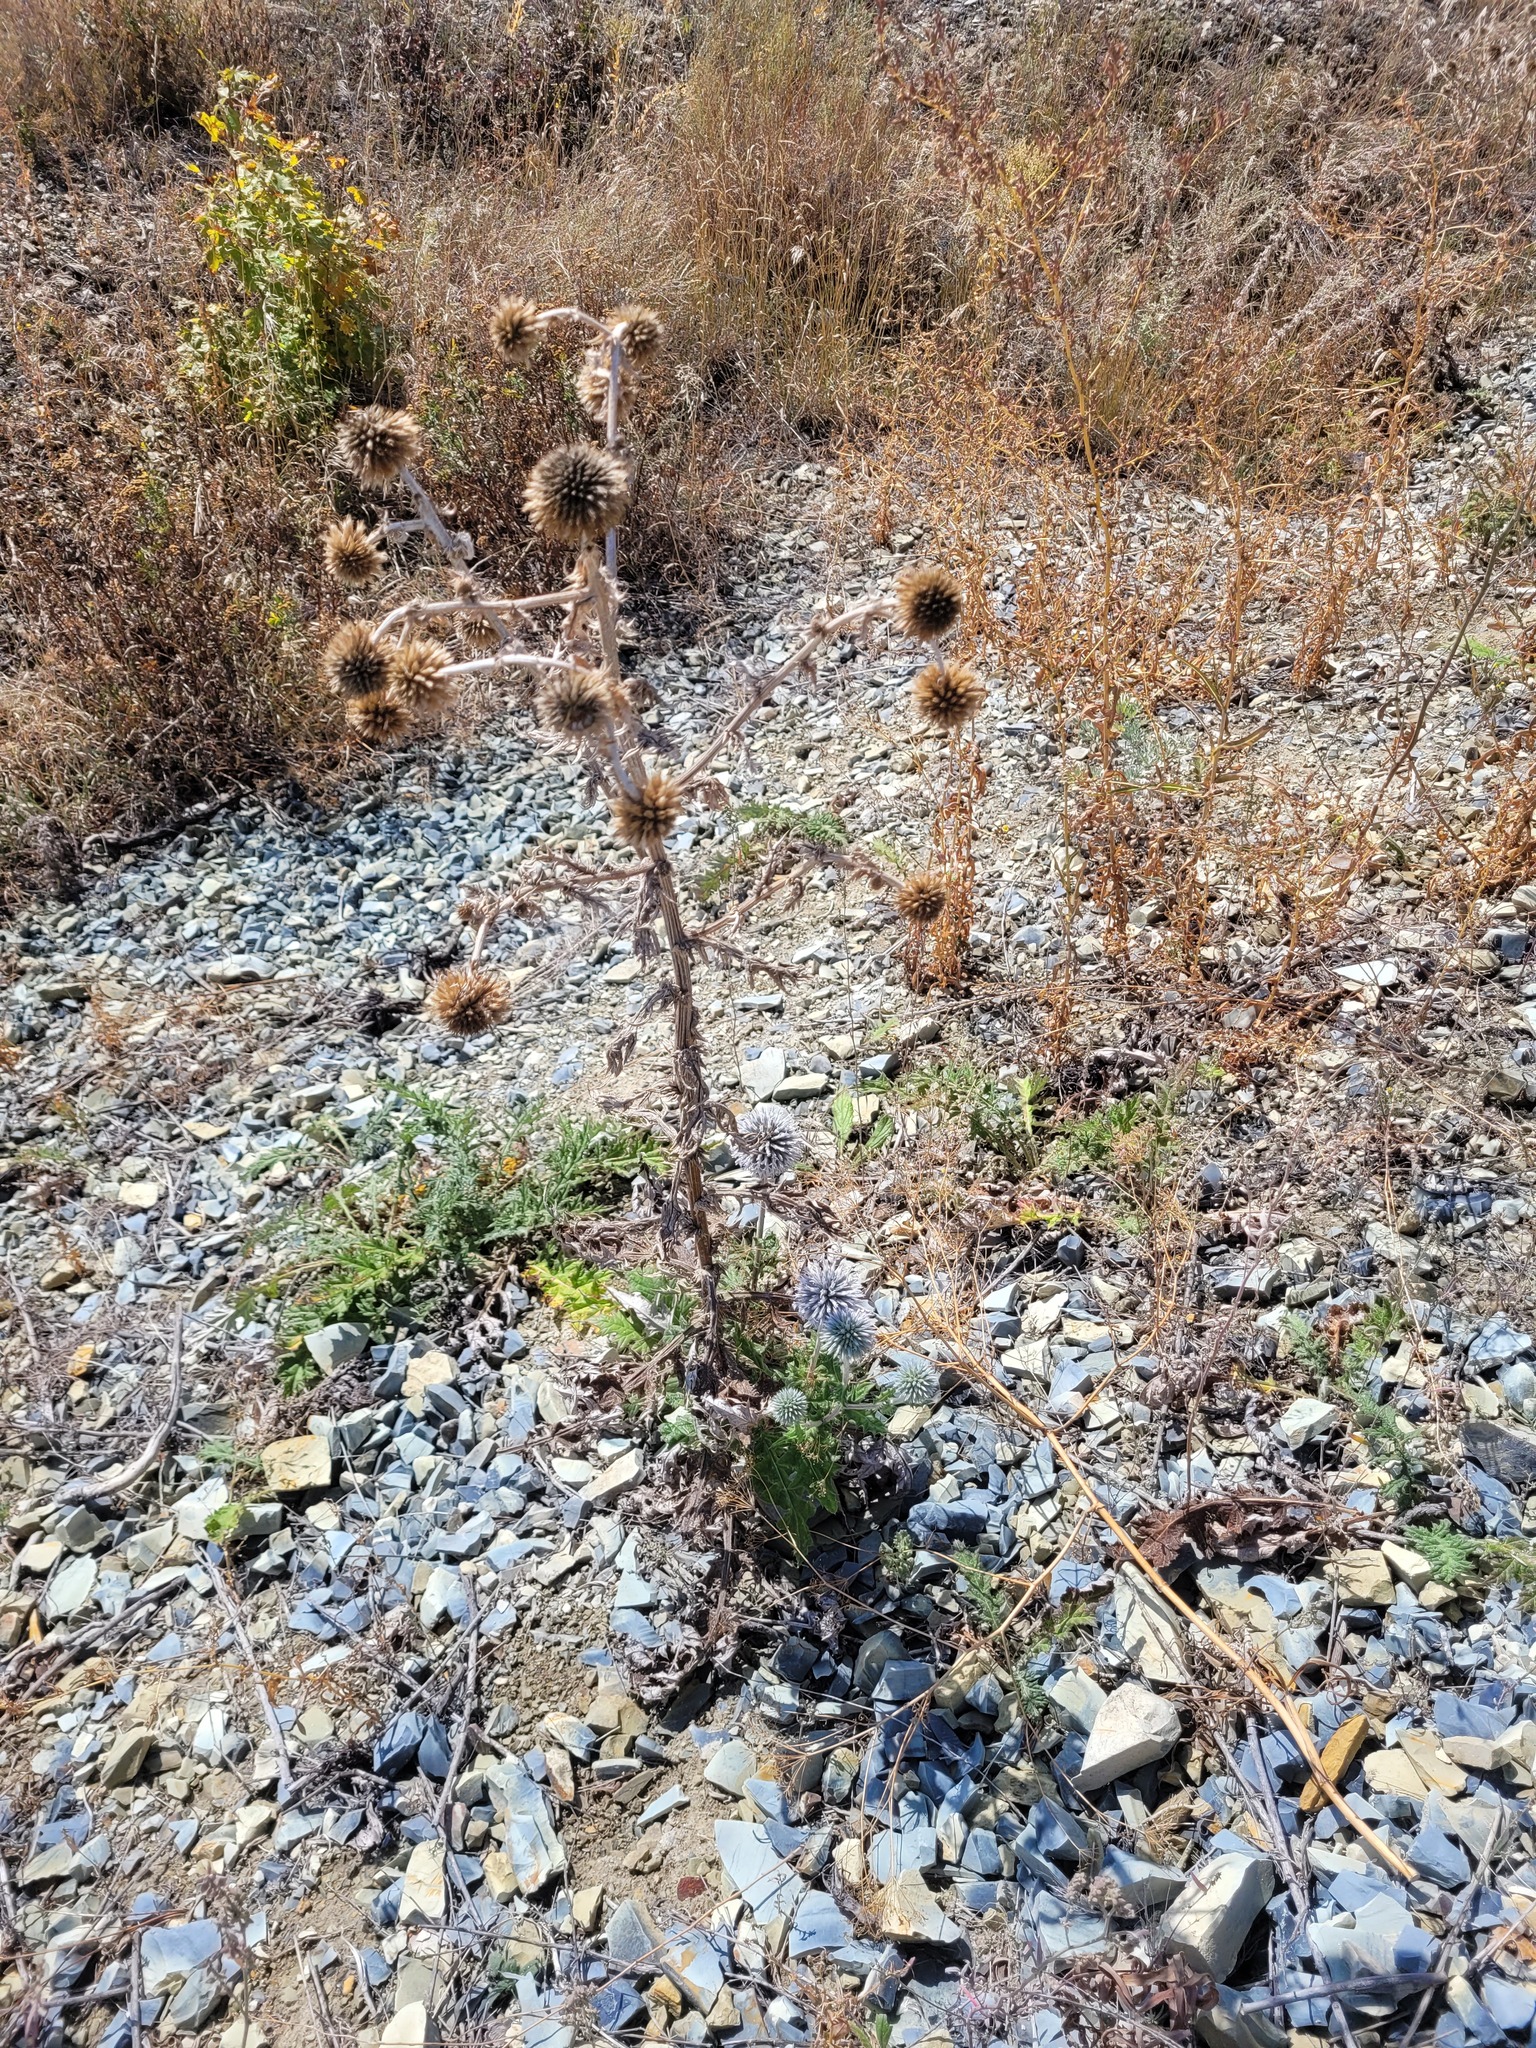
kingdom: Plantae
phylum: Tracheophyta
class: Magnoliopsida
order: Asterales
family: Asteraceae
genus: Echinops
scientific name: Echinops sphaerocephalus
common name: Glandular globe-thistle
